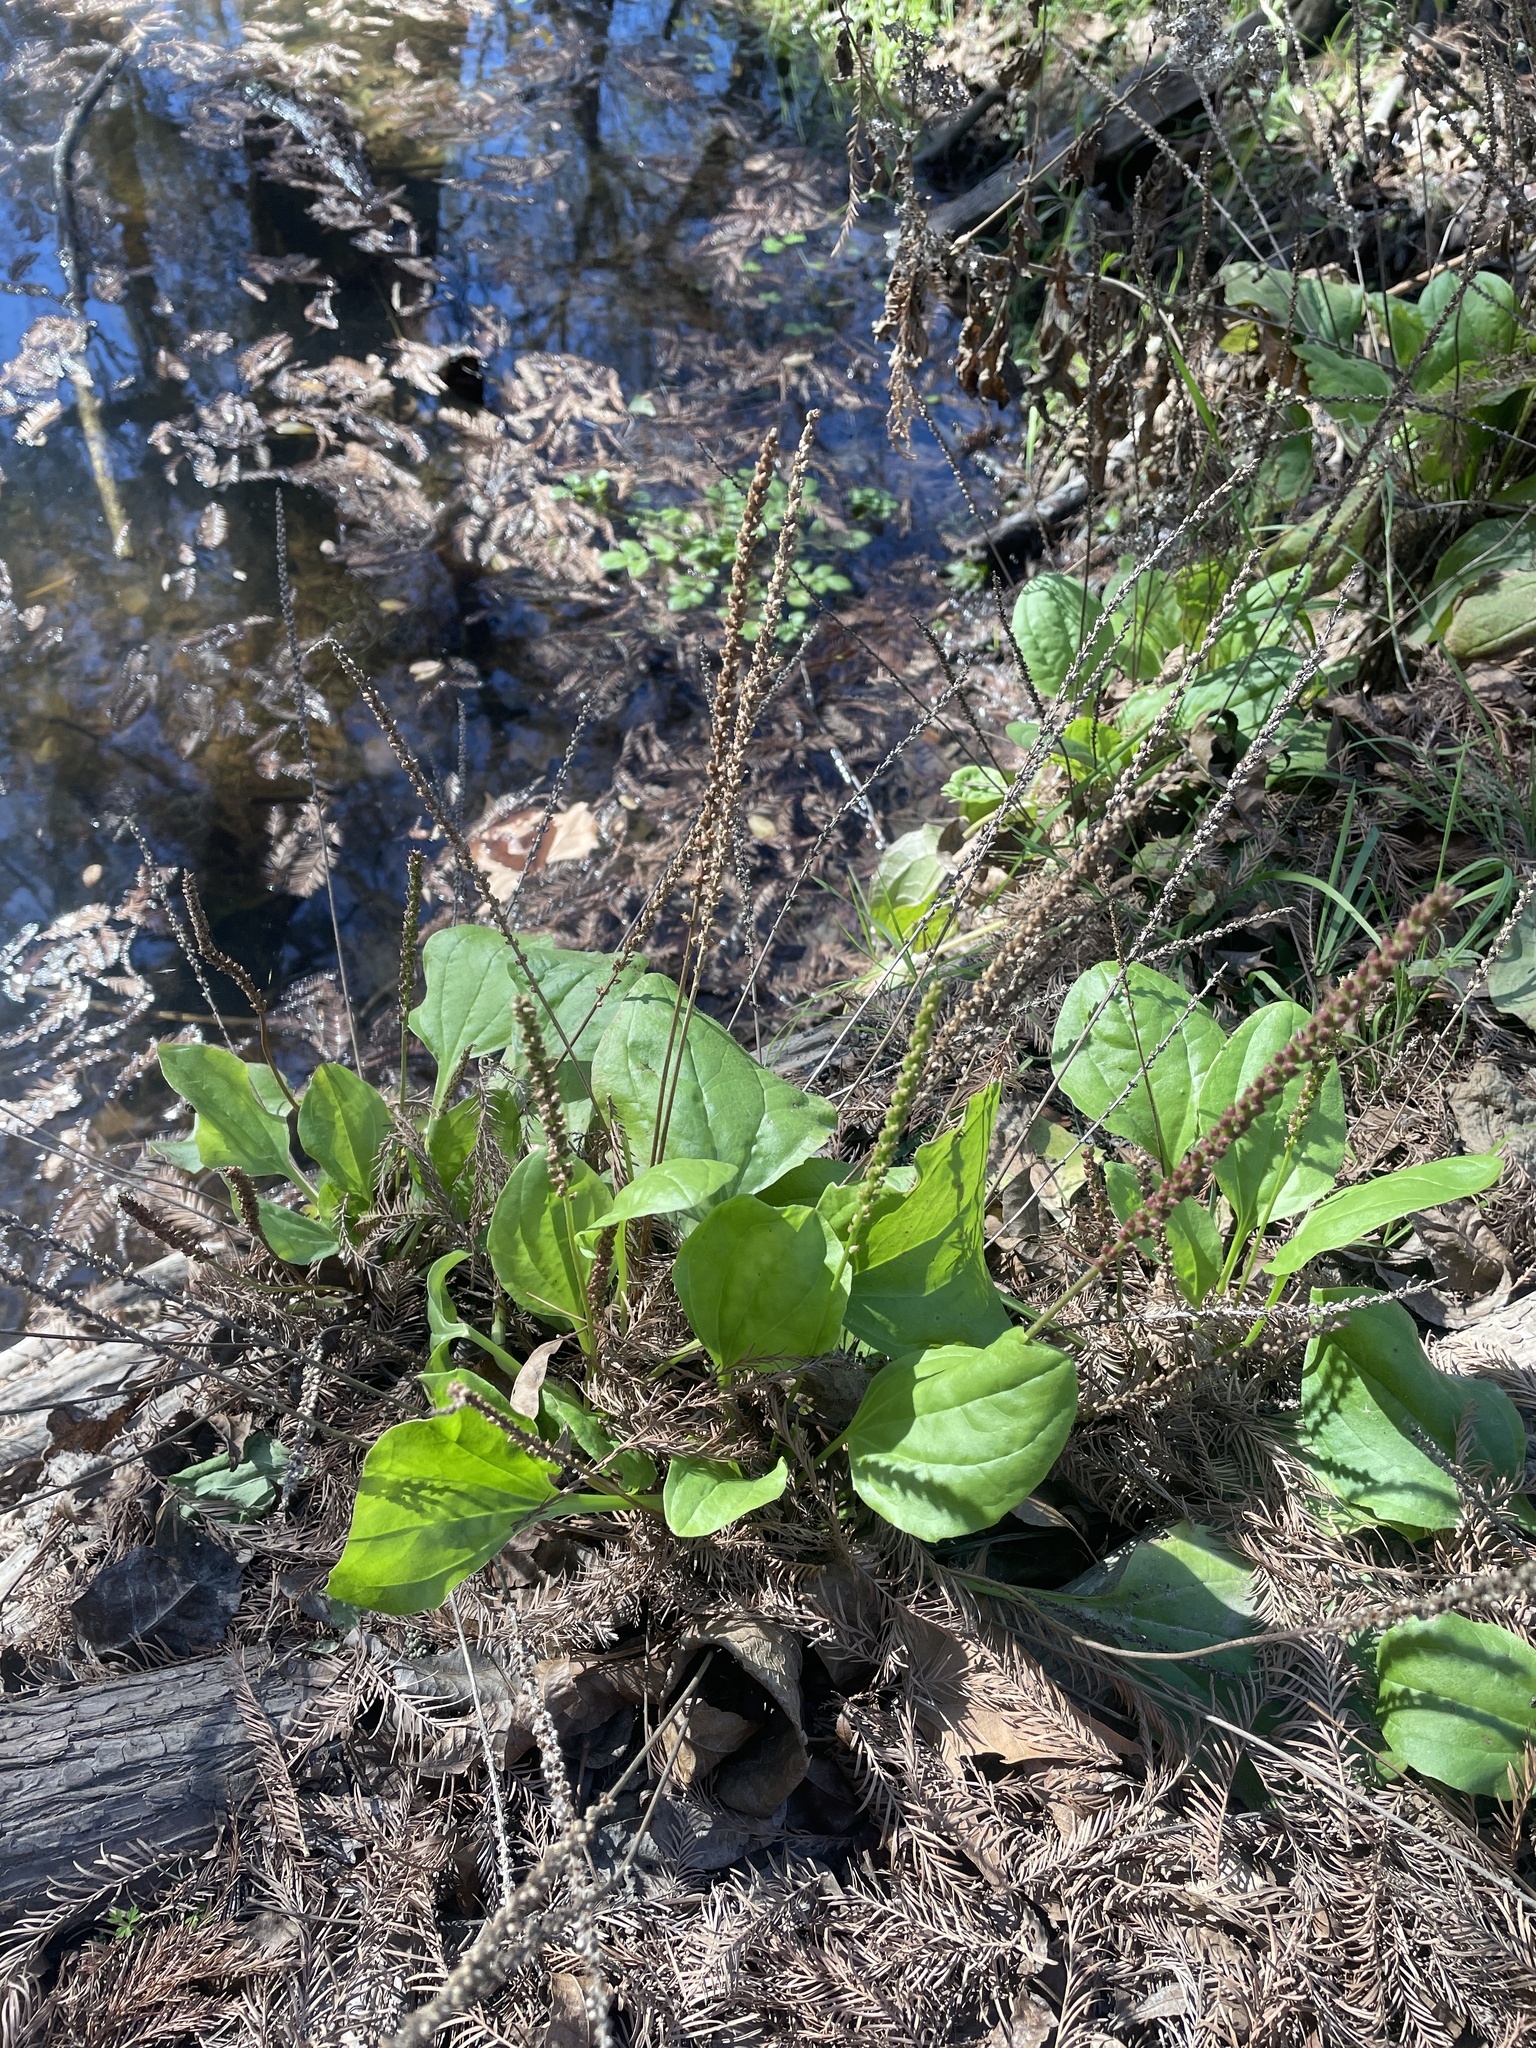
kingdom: Plantae
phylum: Tracheophyta
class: Magnoliopsida
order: Lamiales
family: Plantaginaceae
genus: Plantago
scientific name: Plantago major
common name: Common plantain
